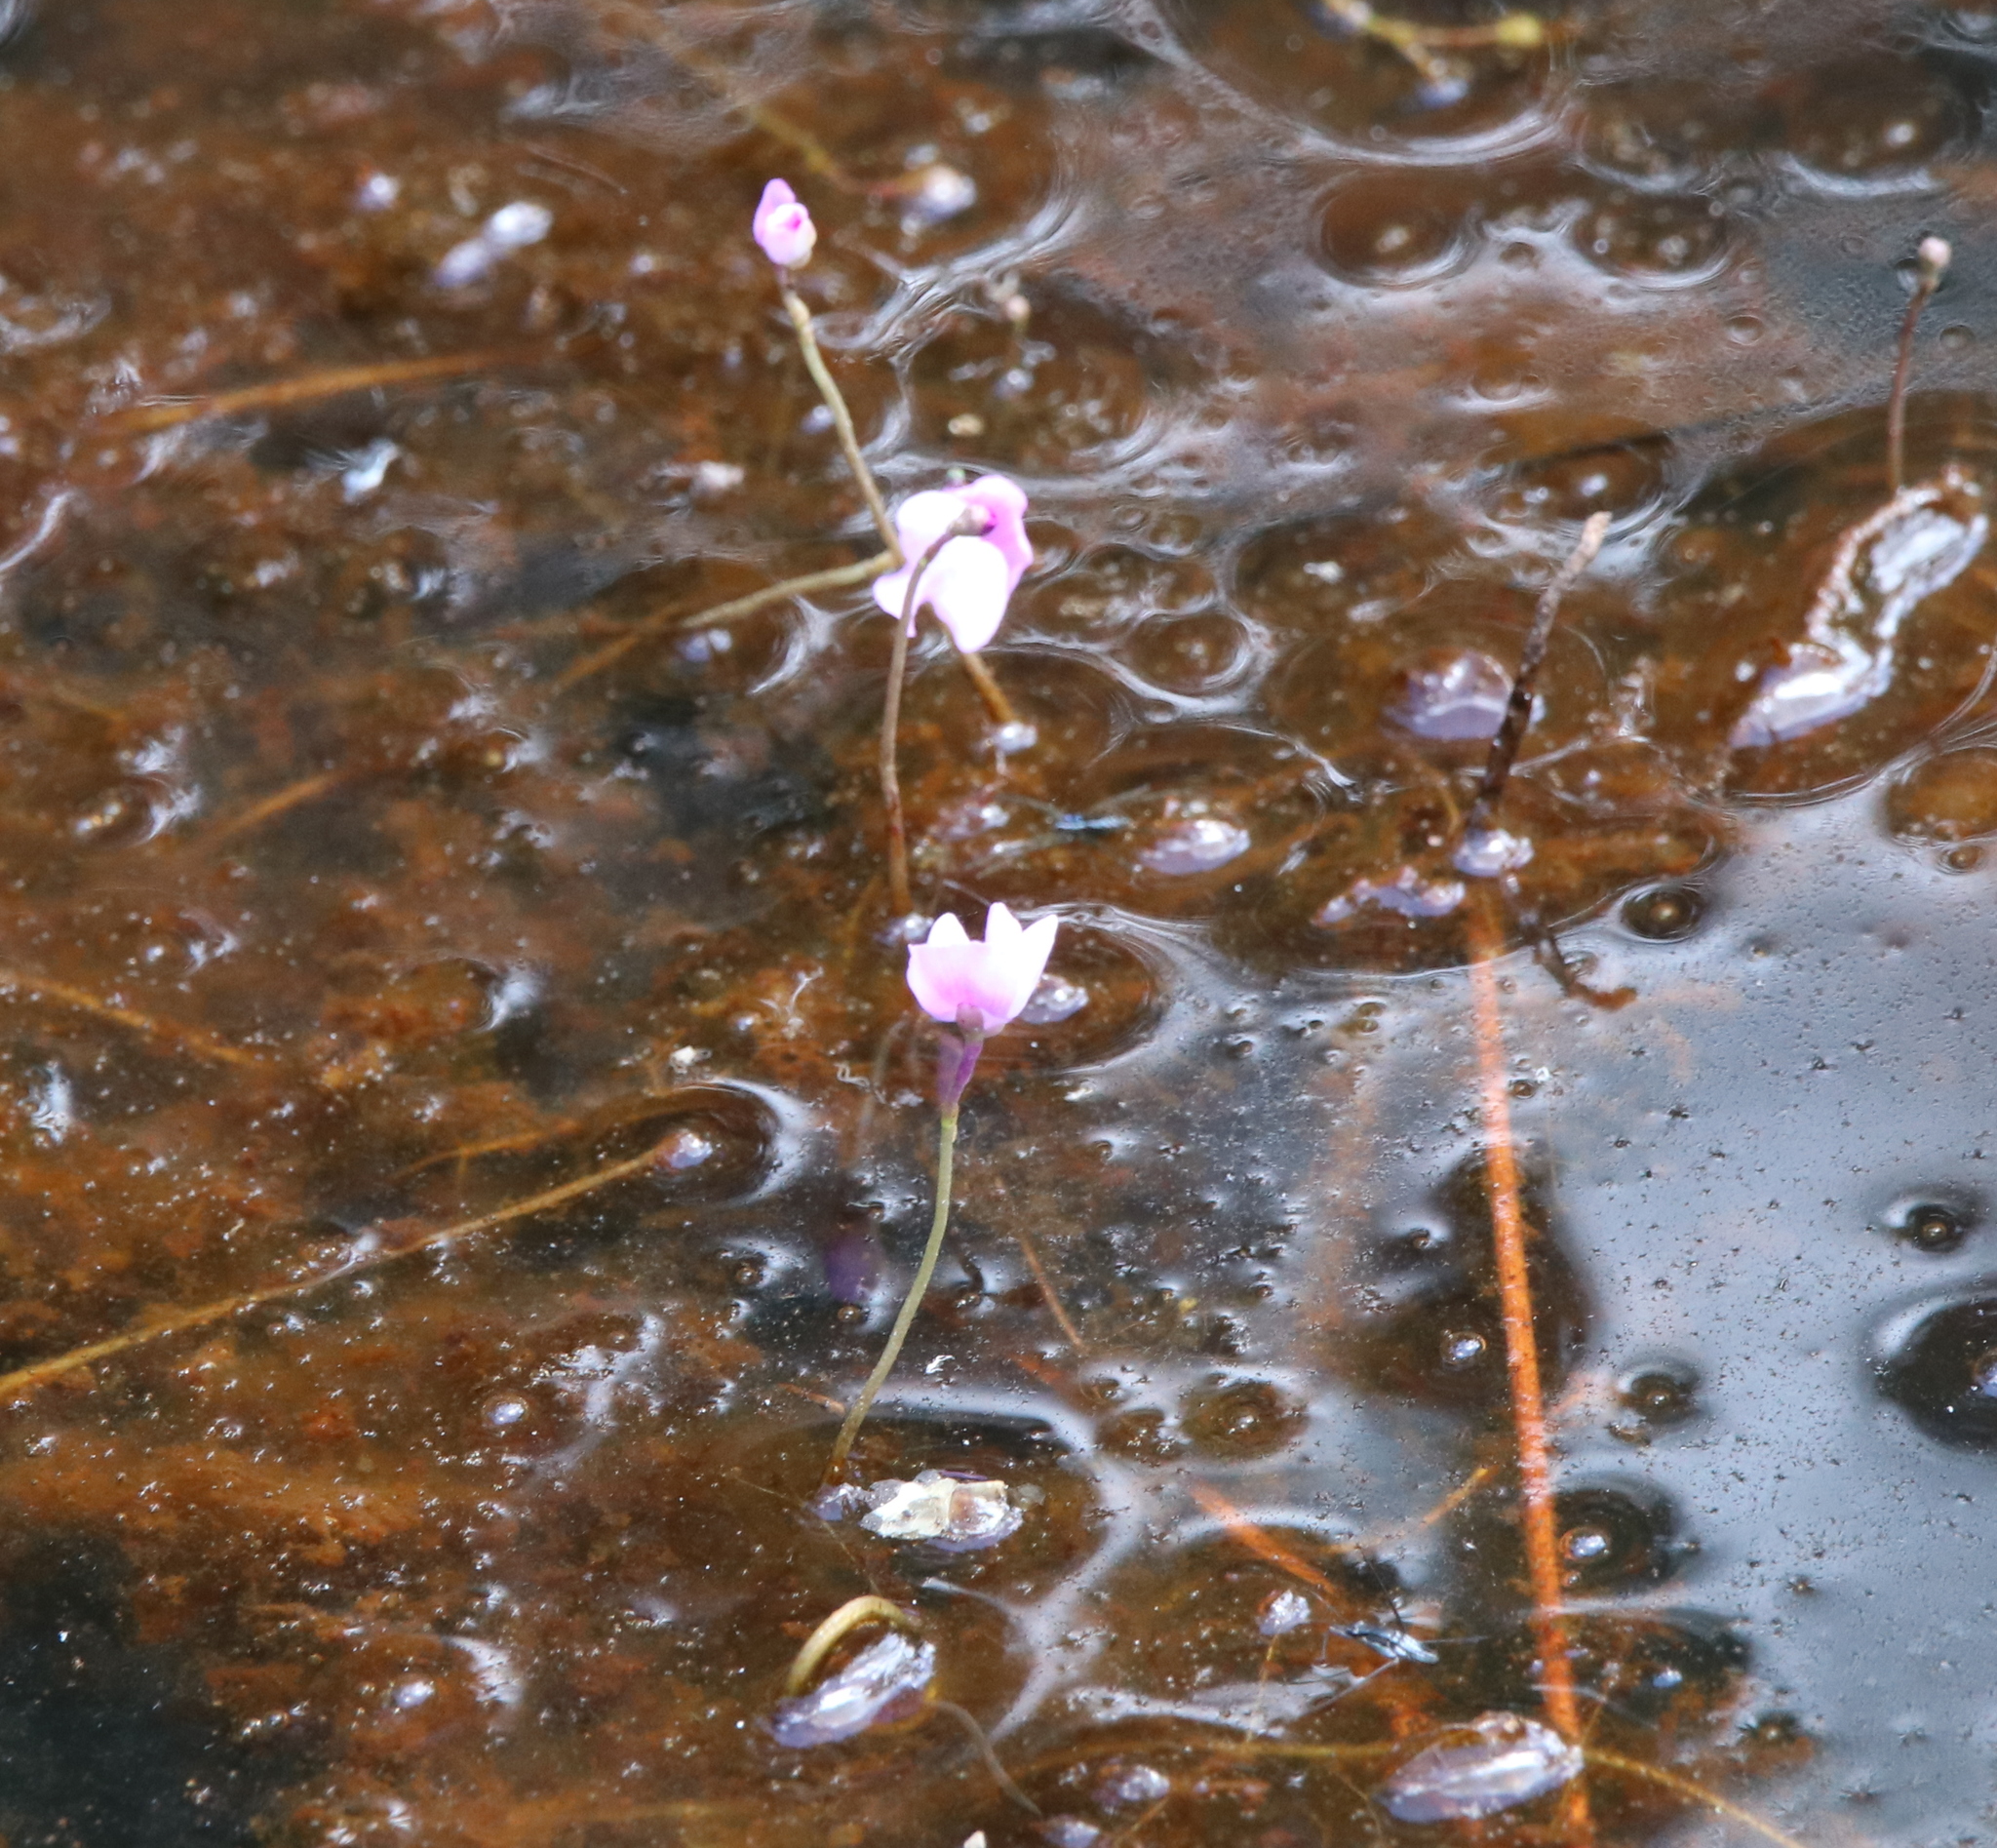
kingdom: Plantae
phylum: Tracheophyta
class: Magnoliopsida
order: Lamiales
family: Lentibulariaceae
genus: Utricularia
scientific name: Utricularia purpurea
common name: Eastern purple bladderwort
